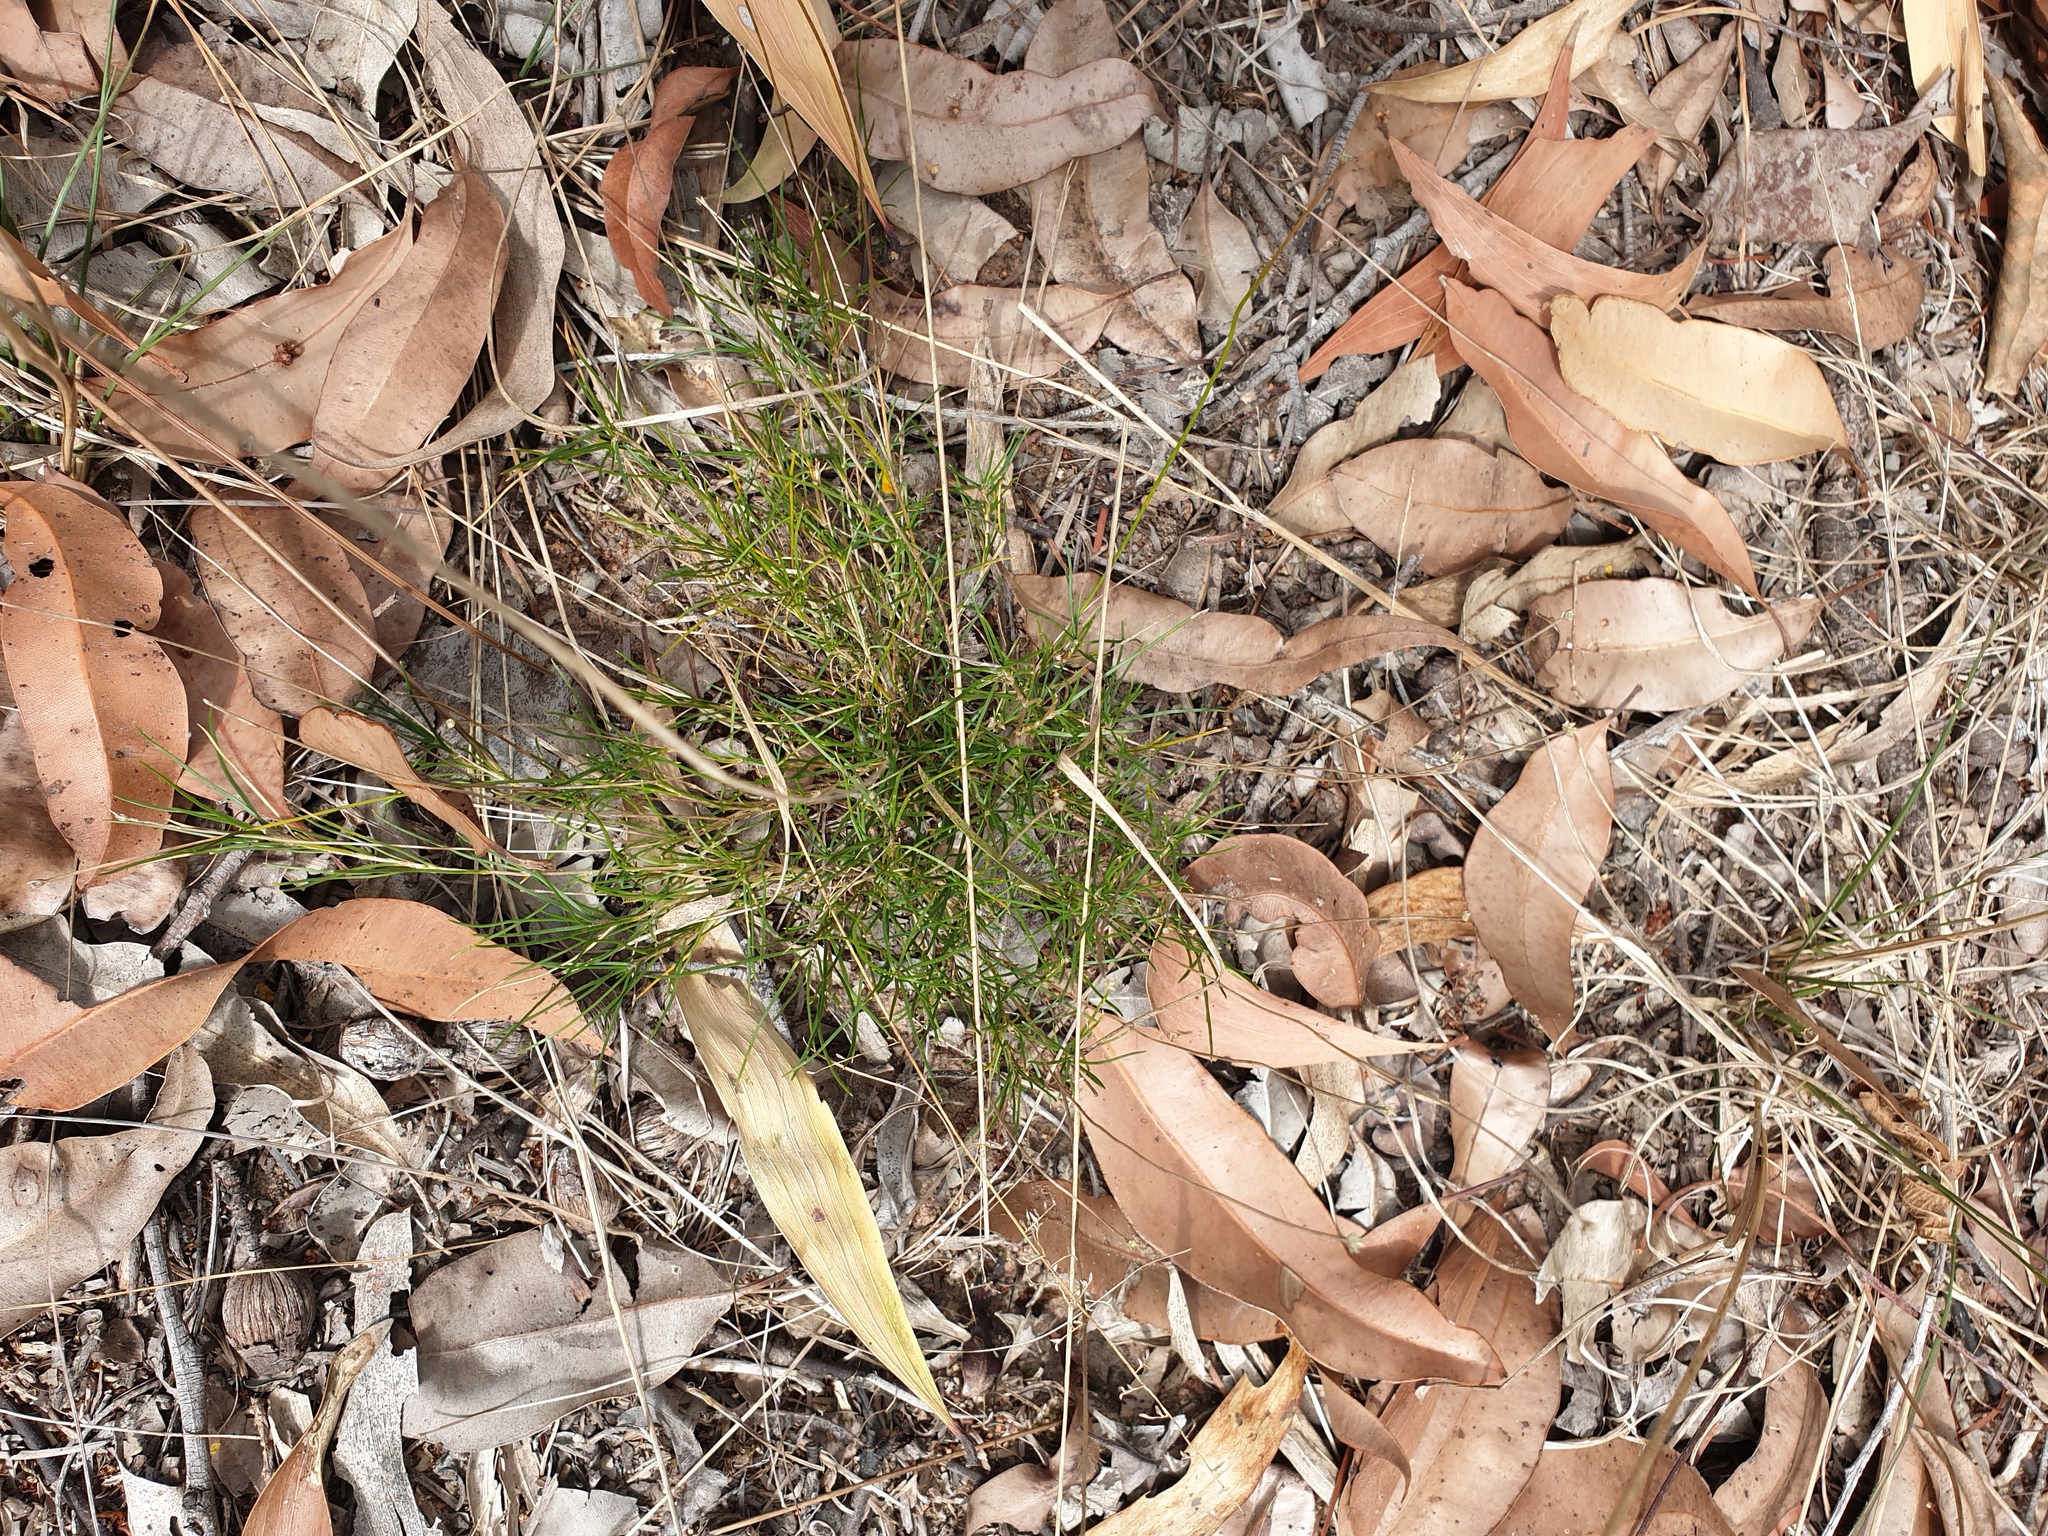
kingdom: Plantae
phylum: Tracheophyta
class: Liliopsida
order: Asparagales
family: Asparagaceae
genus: Laxmannia
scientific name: Laxmannia gracilis
